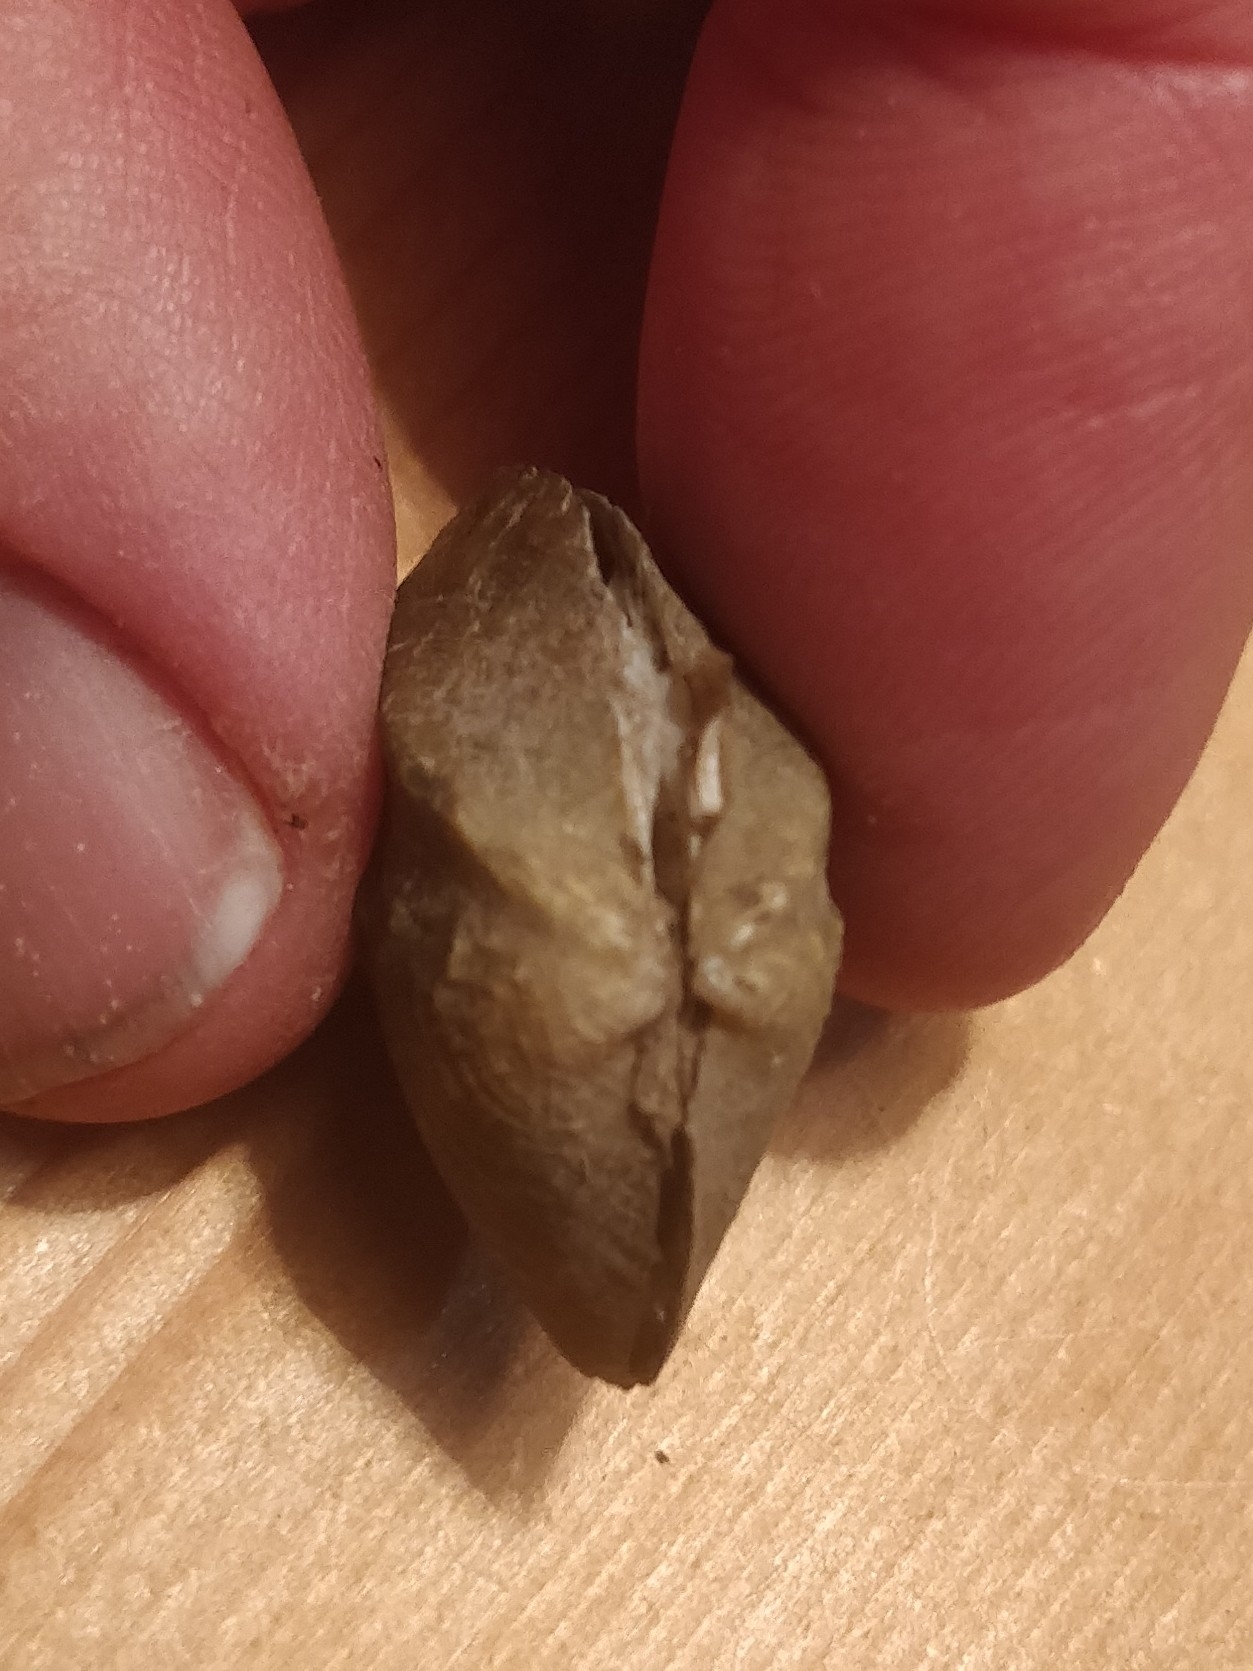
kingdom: Animalia
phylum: Mollusca
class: Bivalvia
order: Unionida
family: Unionidae
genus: Quadrula
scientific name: Quadrula quadrula
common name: Mapleleaf
